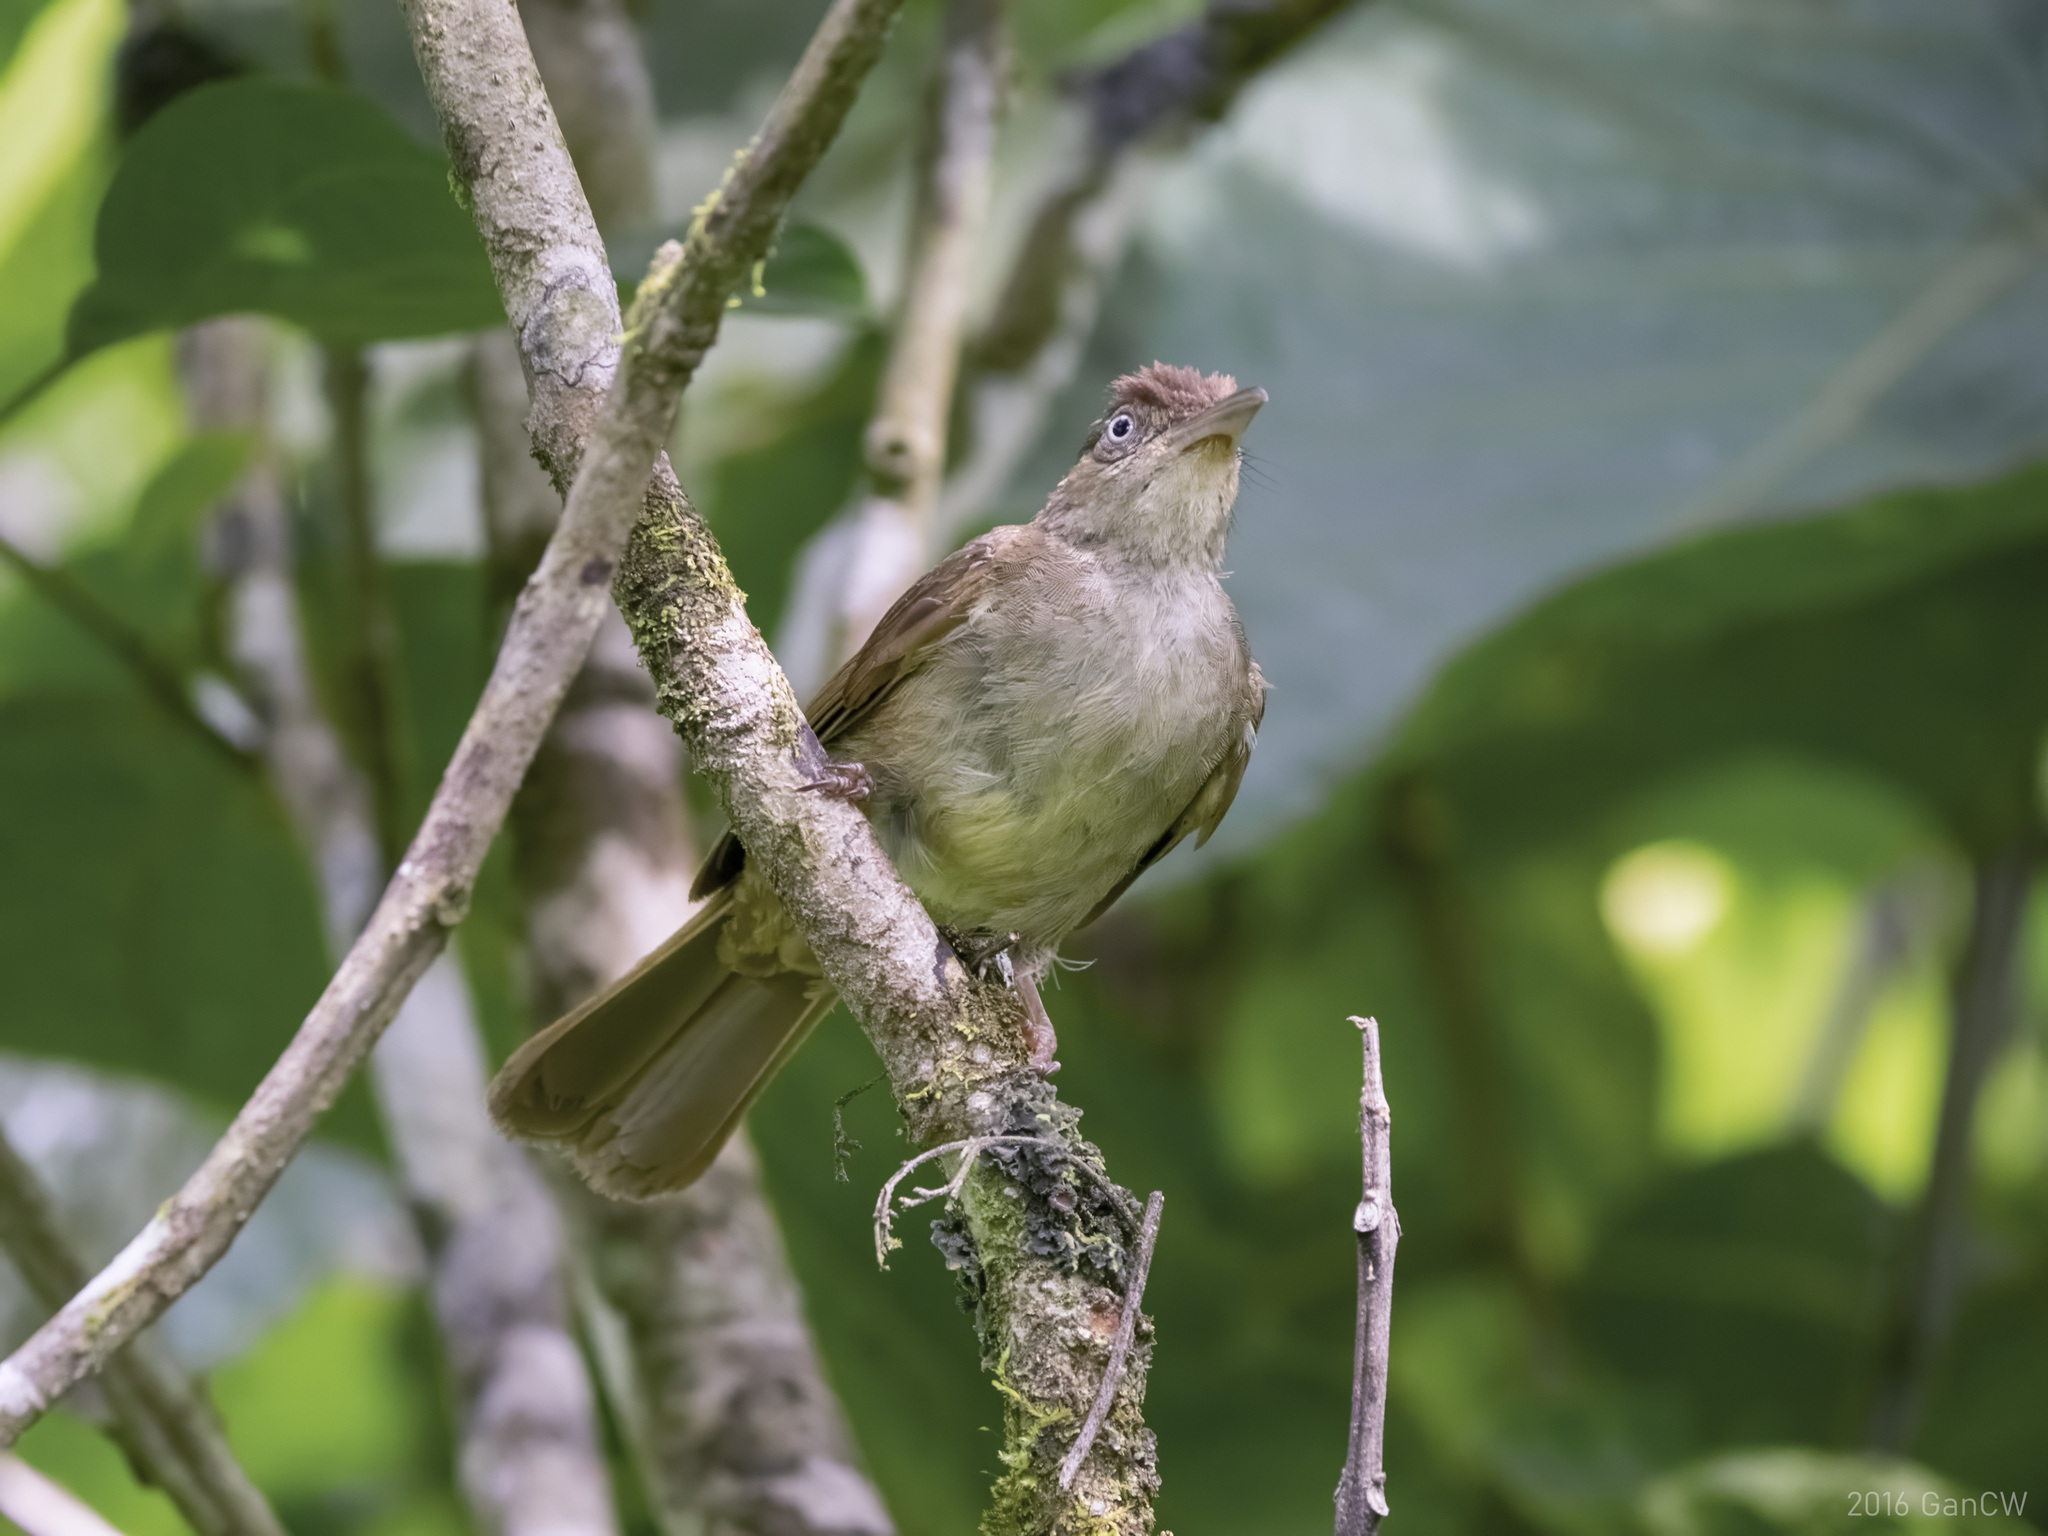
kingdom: Animalia
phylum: Chordata
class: Aves
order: Passeriformes
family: Pycnonotidae
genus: Iole
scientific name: Iole olivacea
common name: Buff-vented bulbul
